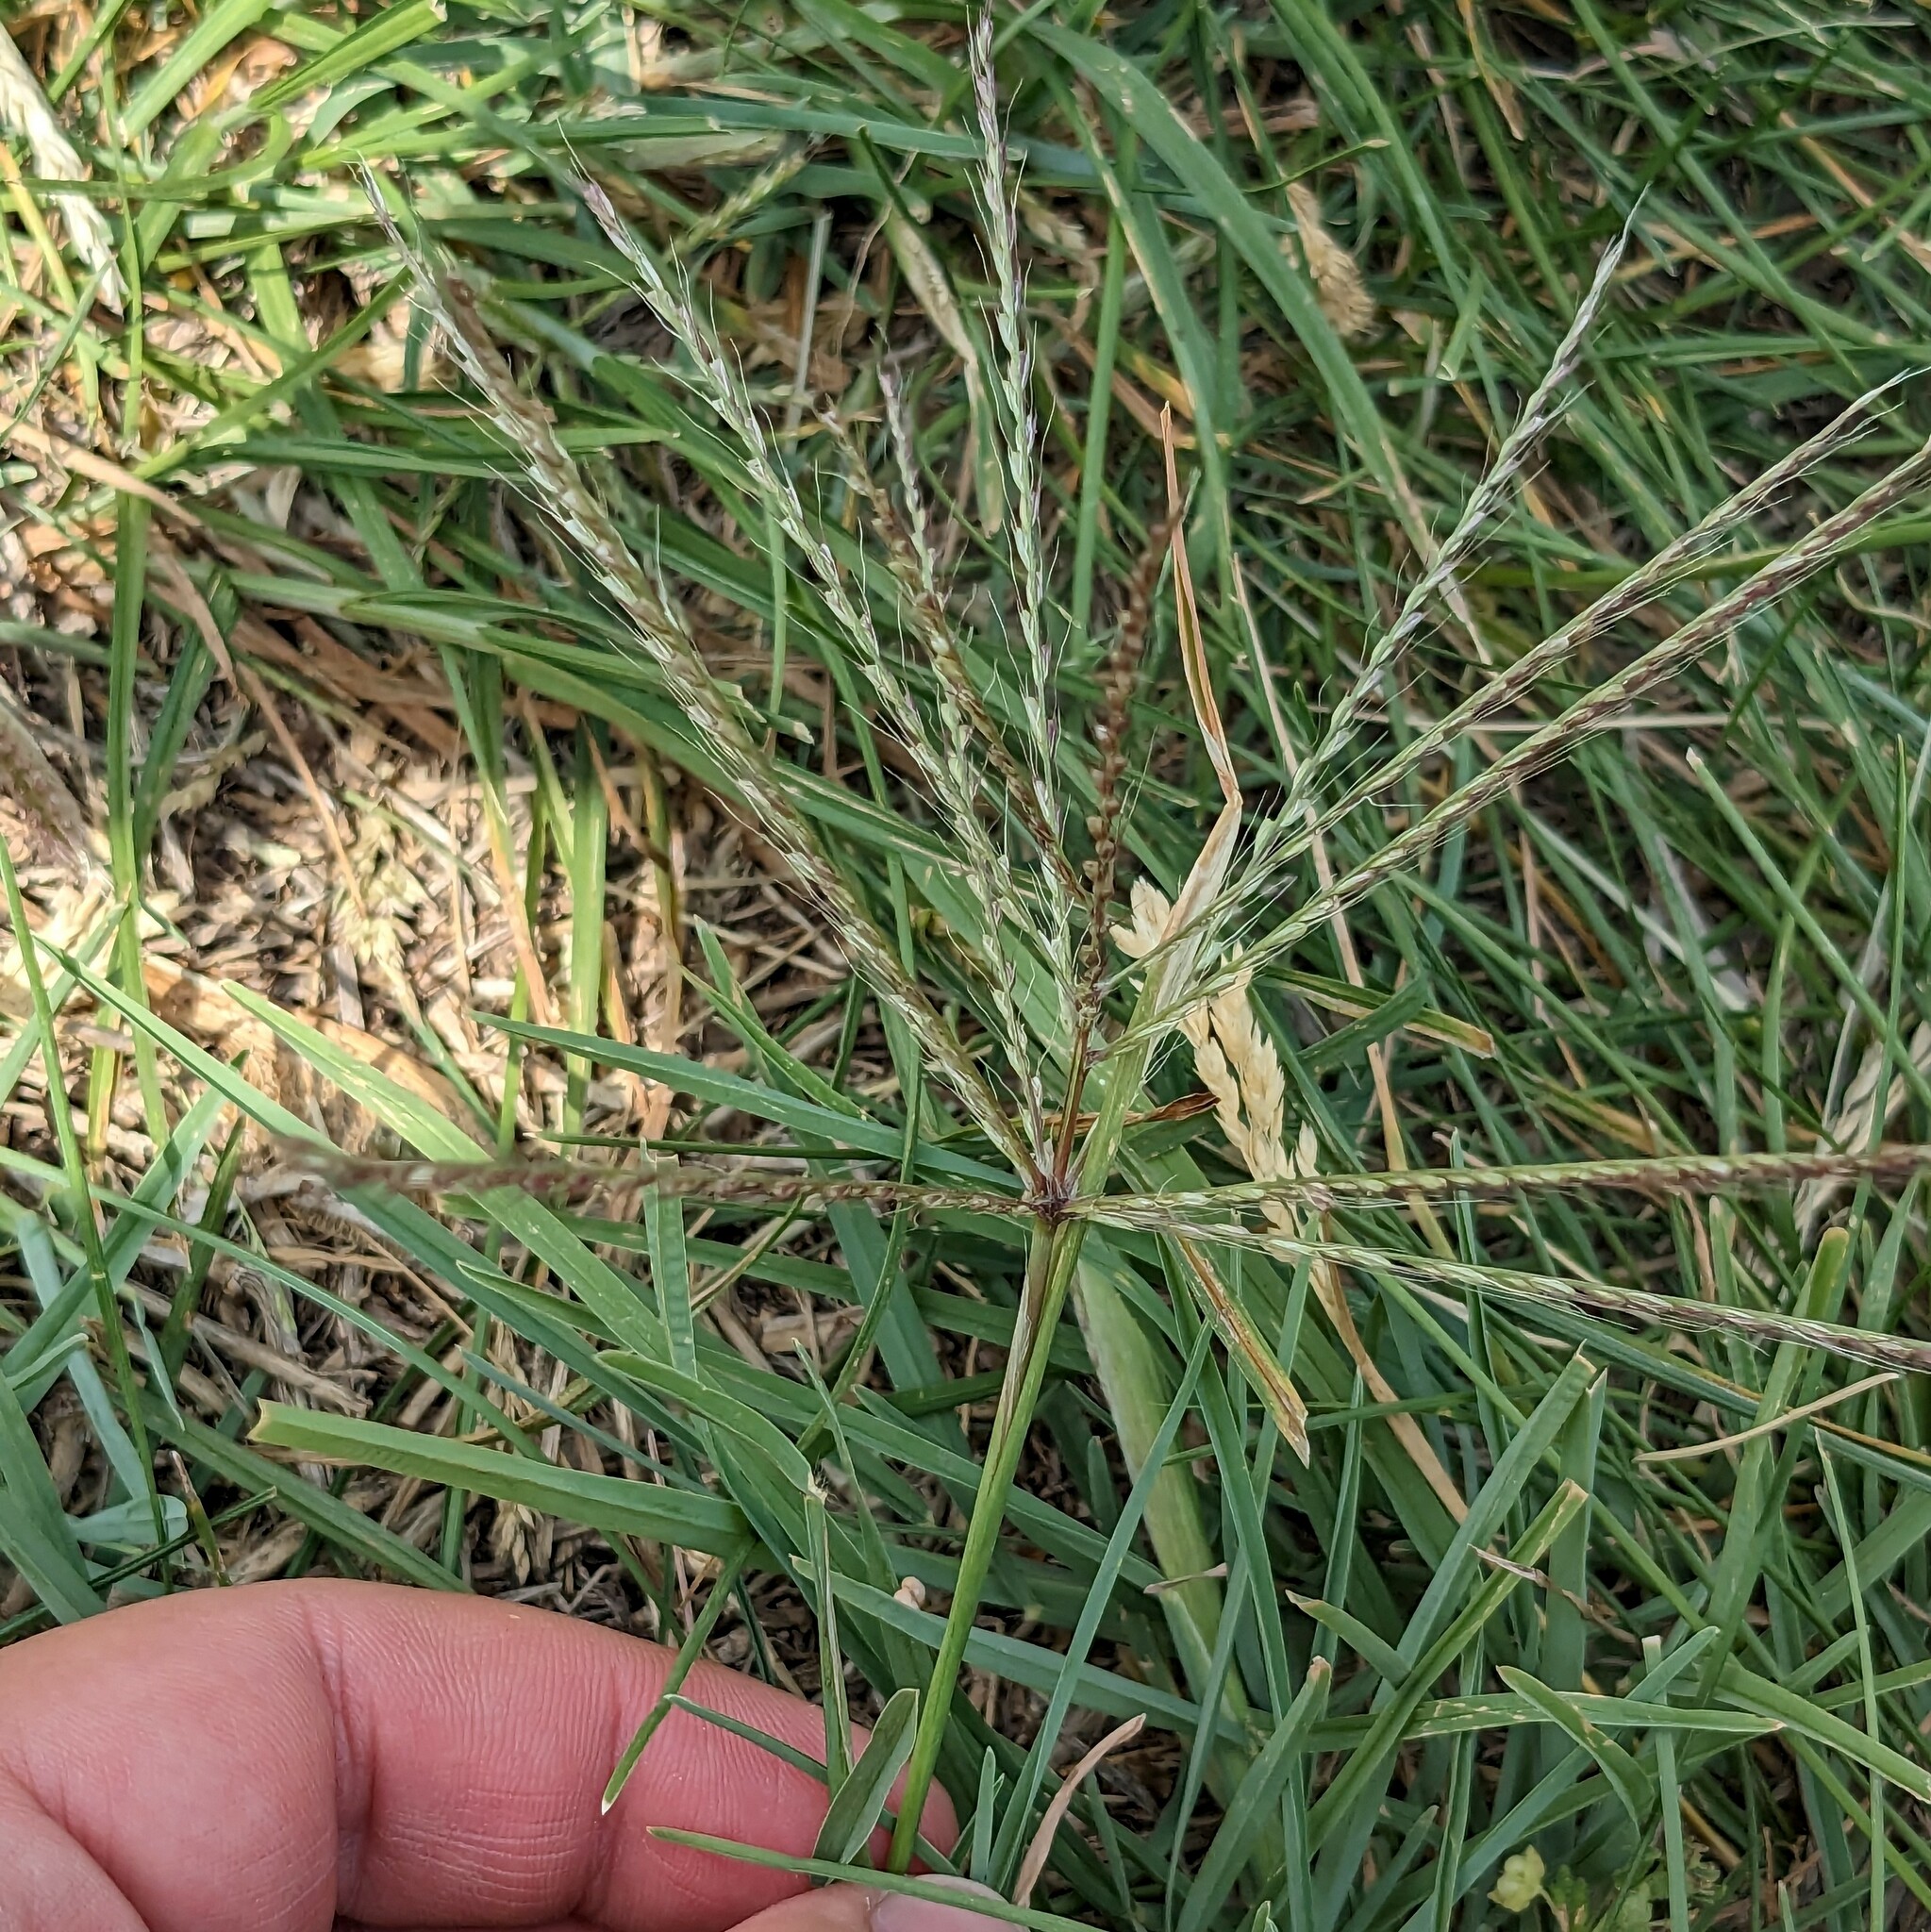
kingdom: Plantae
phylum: Tracheophyta
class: Liliopsida
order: Poales
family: Poaceae
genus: Chloris
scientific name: Chloris verticillata
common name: Tumble windmill grass
